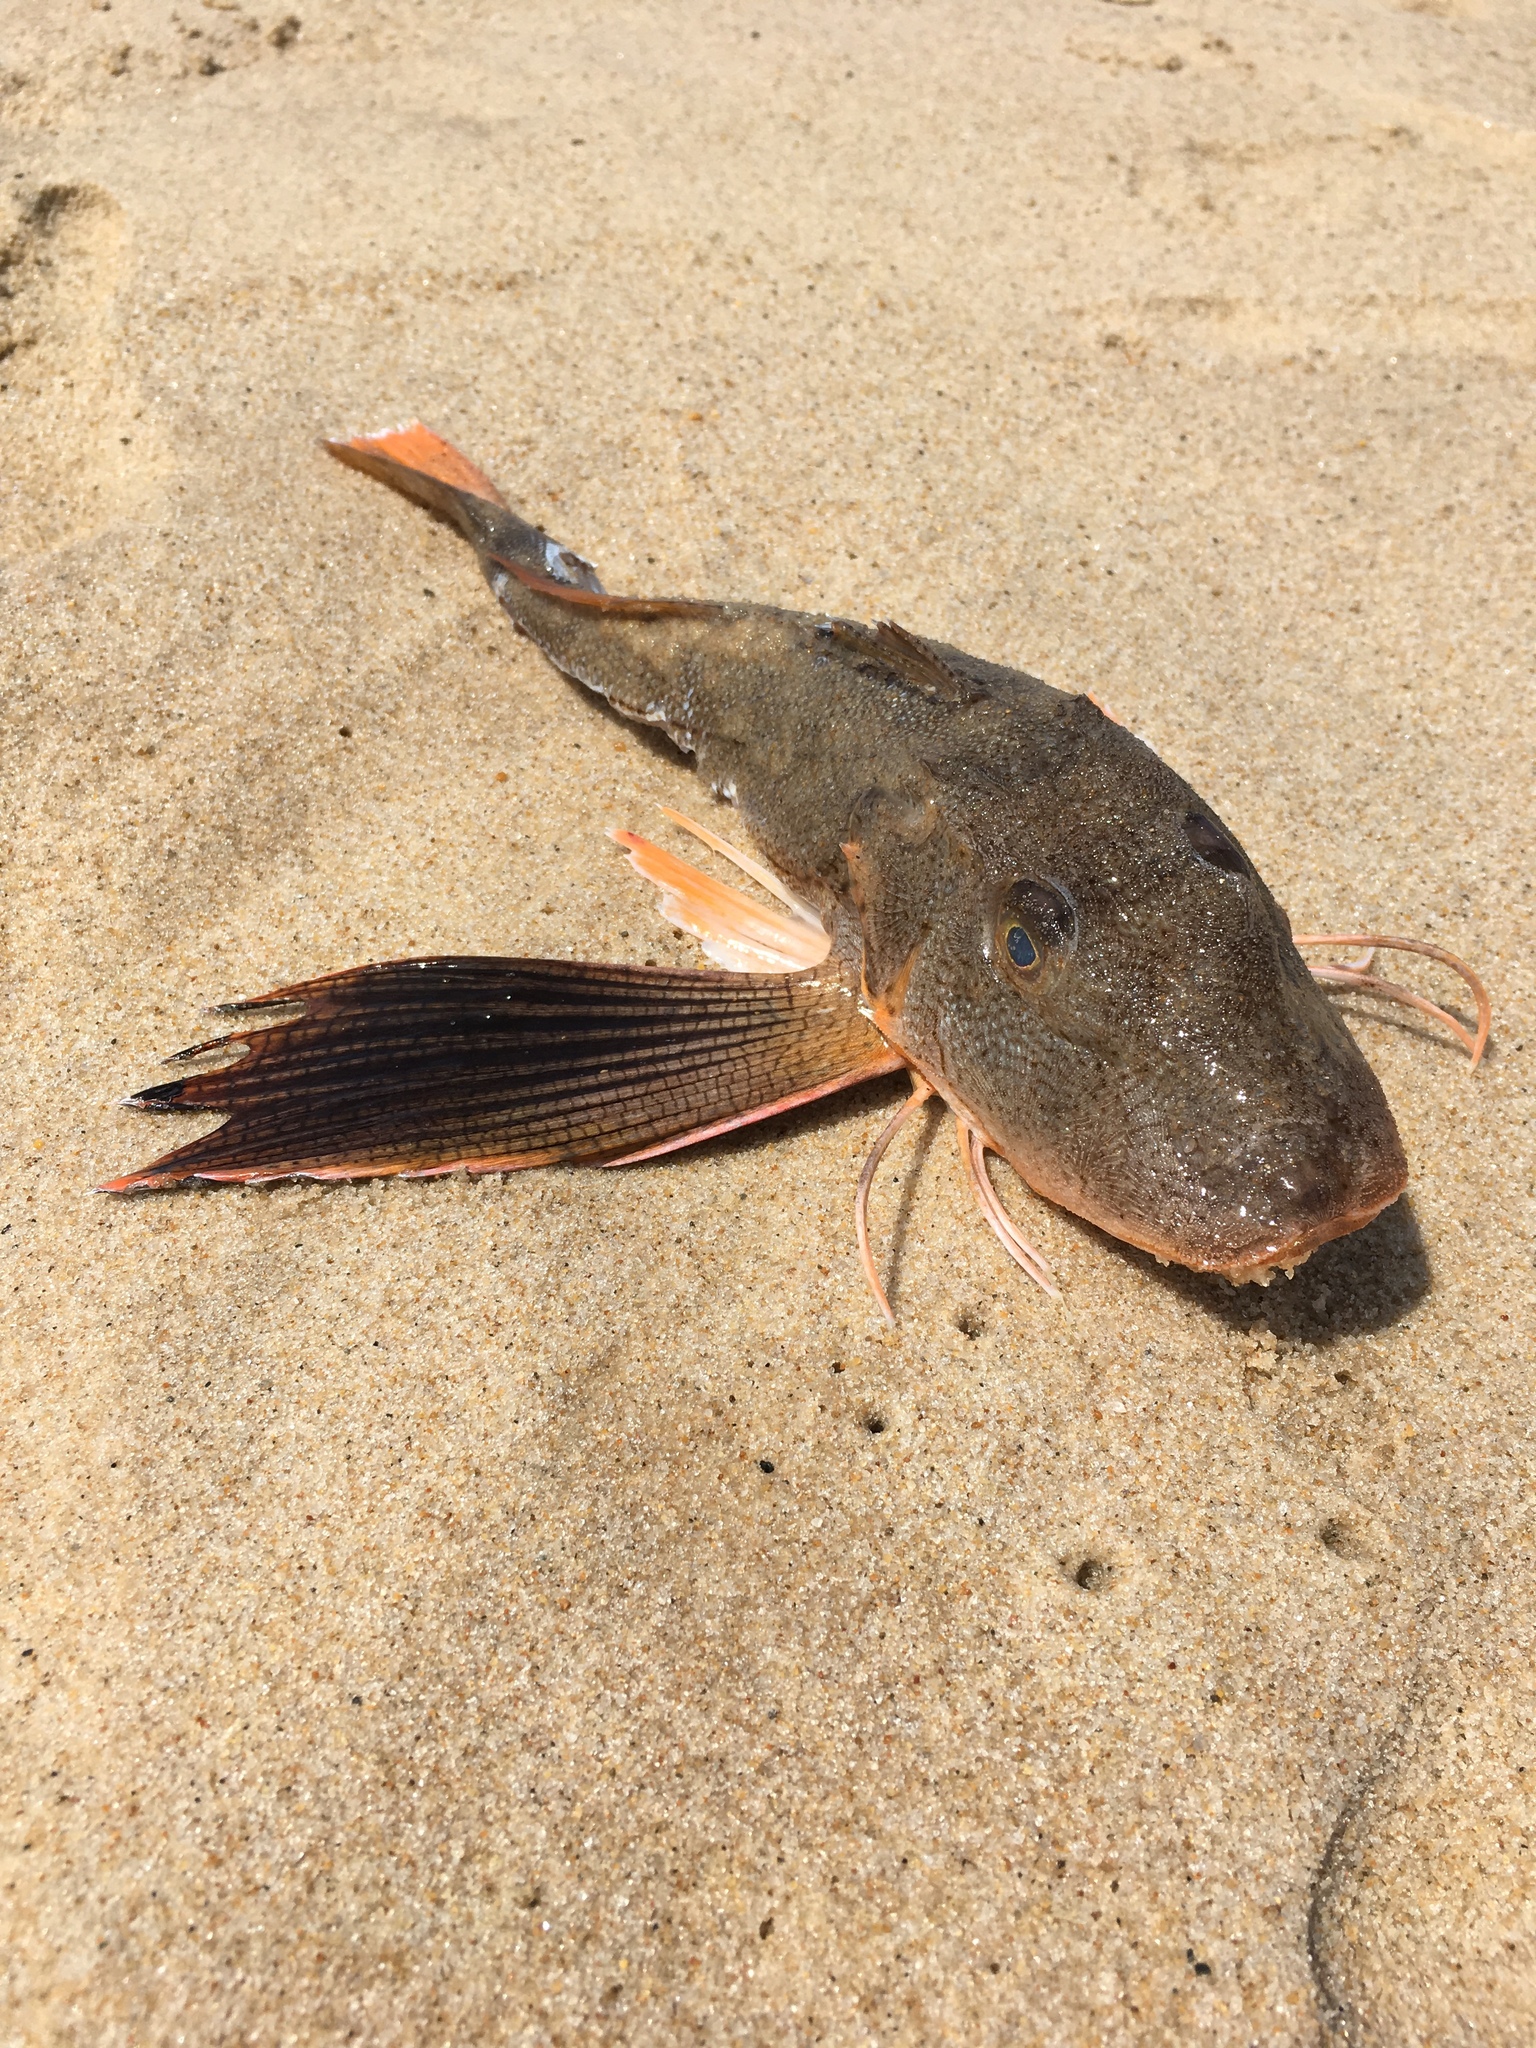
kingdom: Animalia
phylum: Chordata
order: Scorpaeniformes
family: Triglidae
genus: Prionotus
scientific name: Prionotus evolans
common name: Striped searobin
